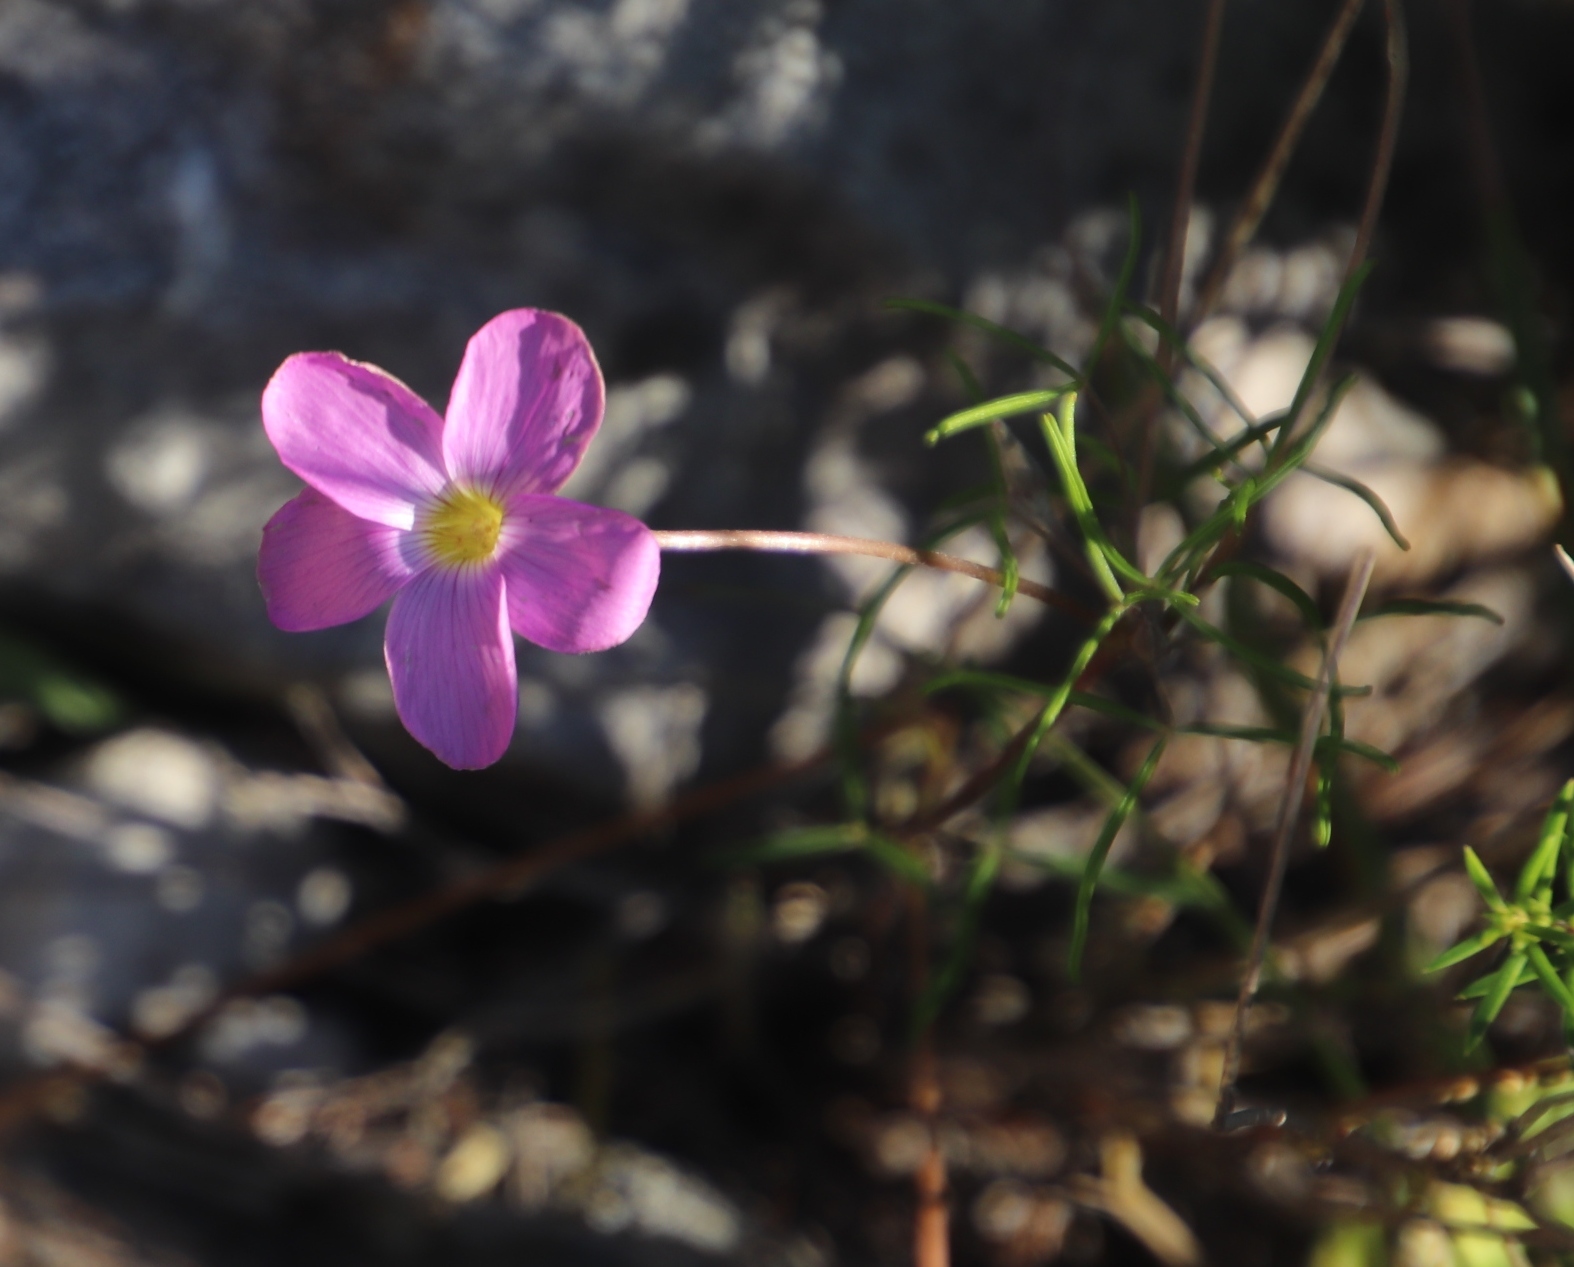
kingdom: Plantae
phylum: Tracheophyta
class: Magnoliopsida
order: Oxalidales
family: Oxalidaceae
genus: Oxalis
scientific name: Oxalis polyphylla
